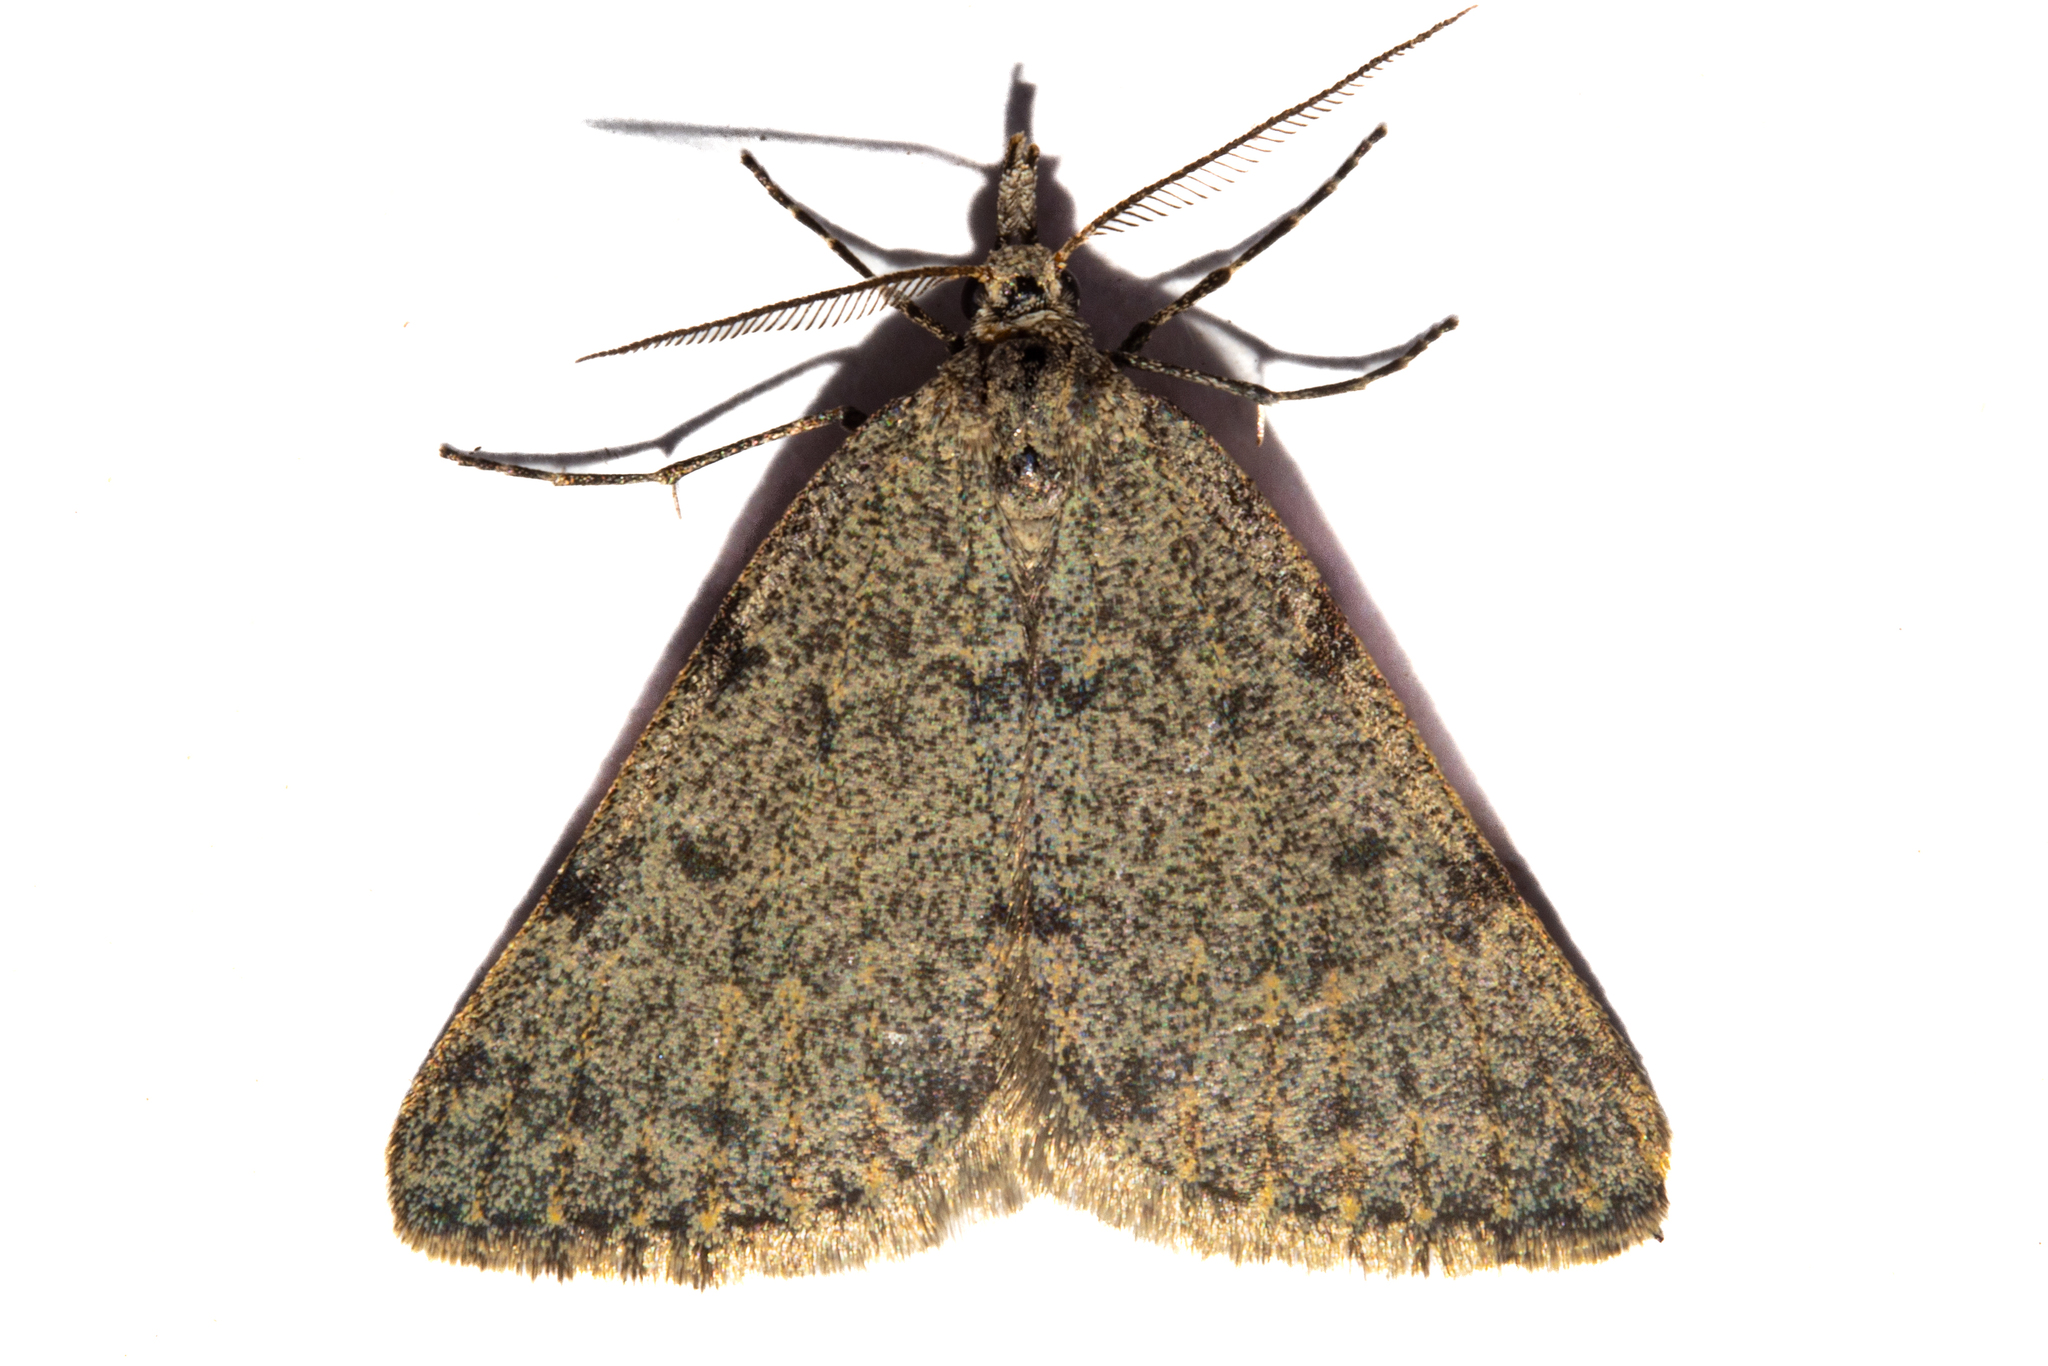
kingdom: Animalia
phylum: Arthropoda
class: Insecta
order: Lepidoptera
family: Geometridae
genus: Dichromodes
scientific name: Dichromodes sphaeriata
